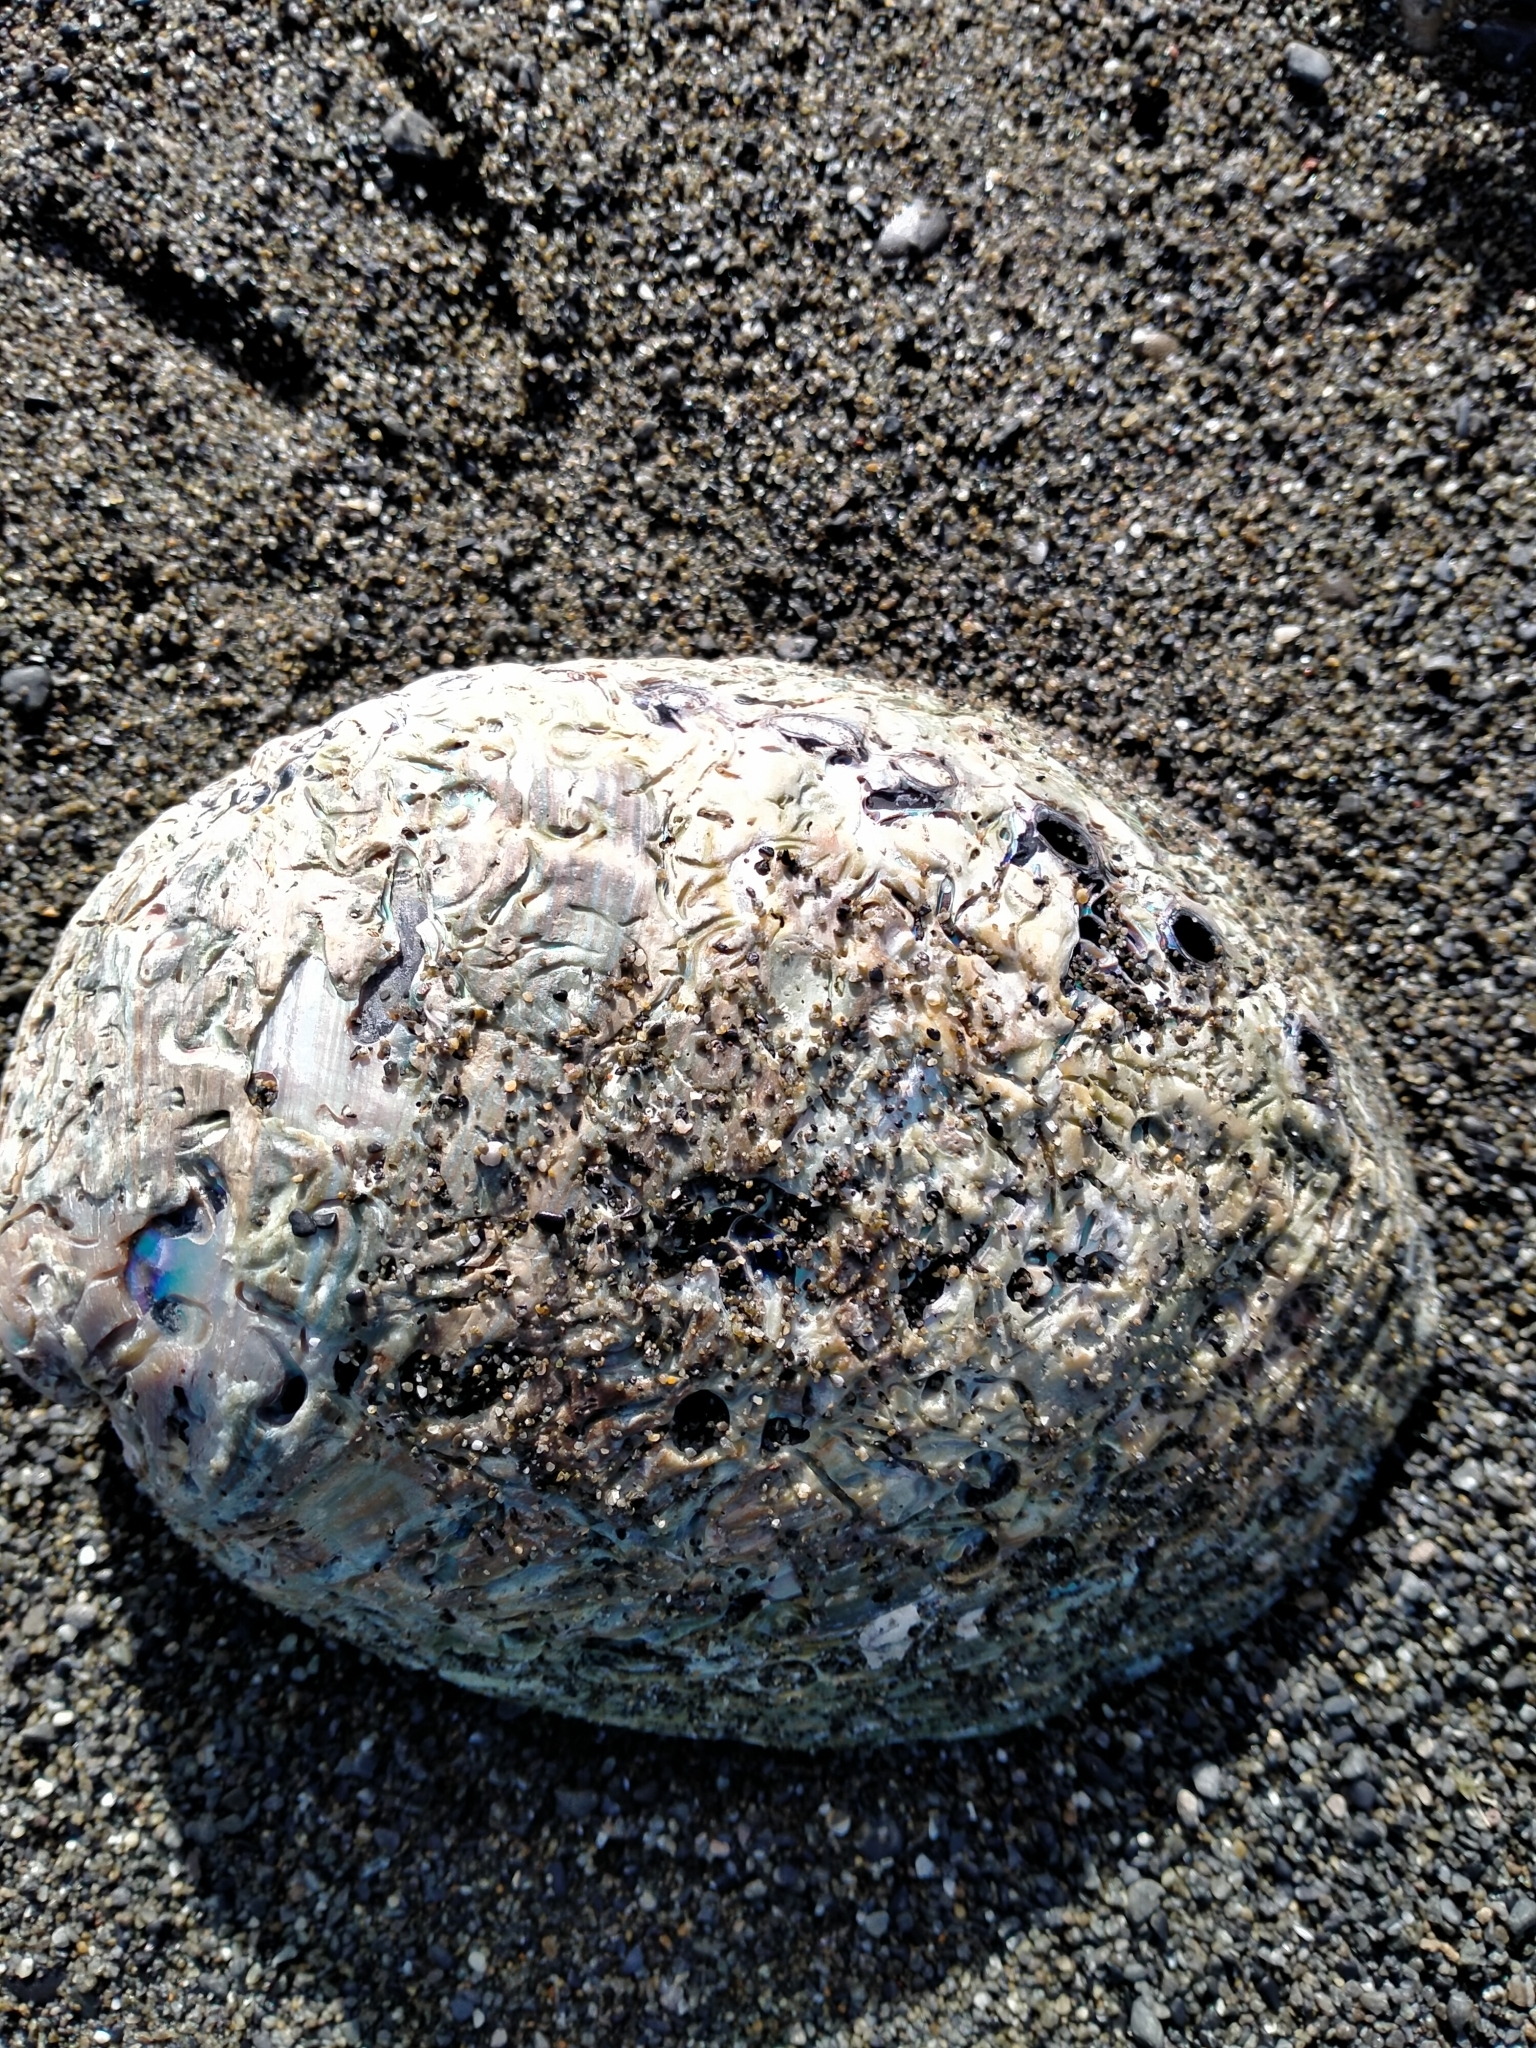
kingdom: Animalia
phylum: Mollusca
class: Gastropoda
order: Lepetellida
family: Haliotidae
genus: Haliotis
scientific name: Haliotis iris
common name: Abalone
